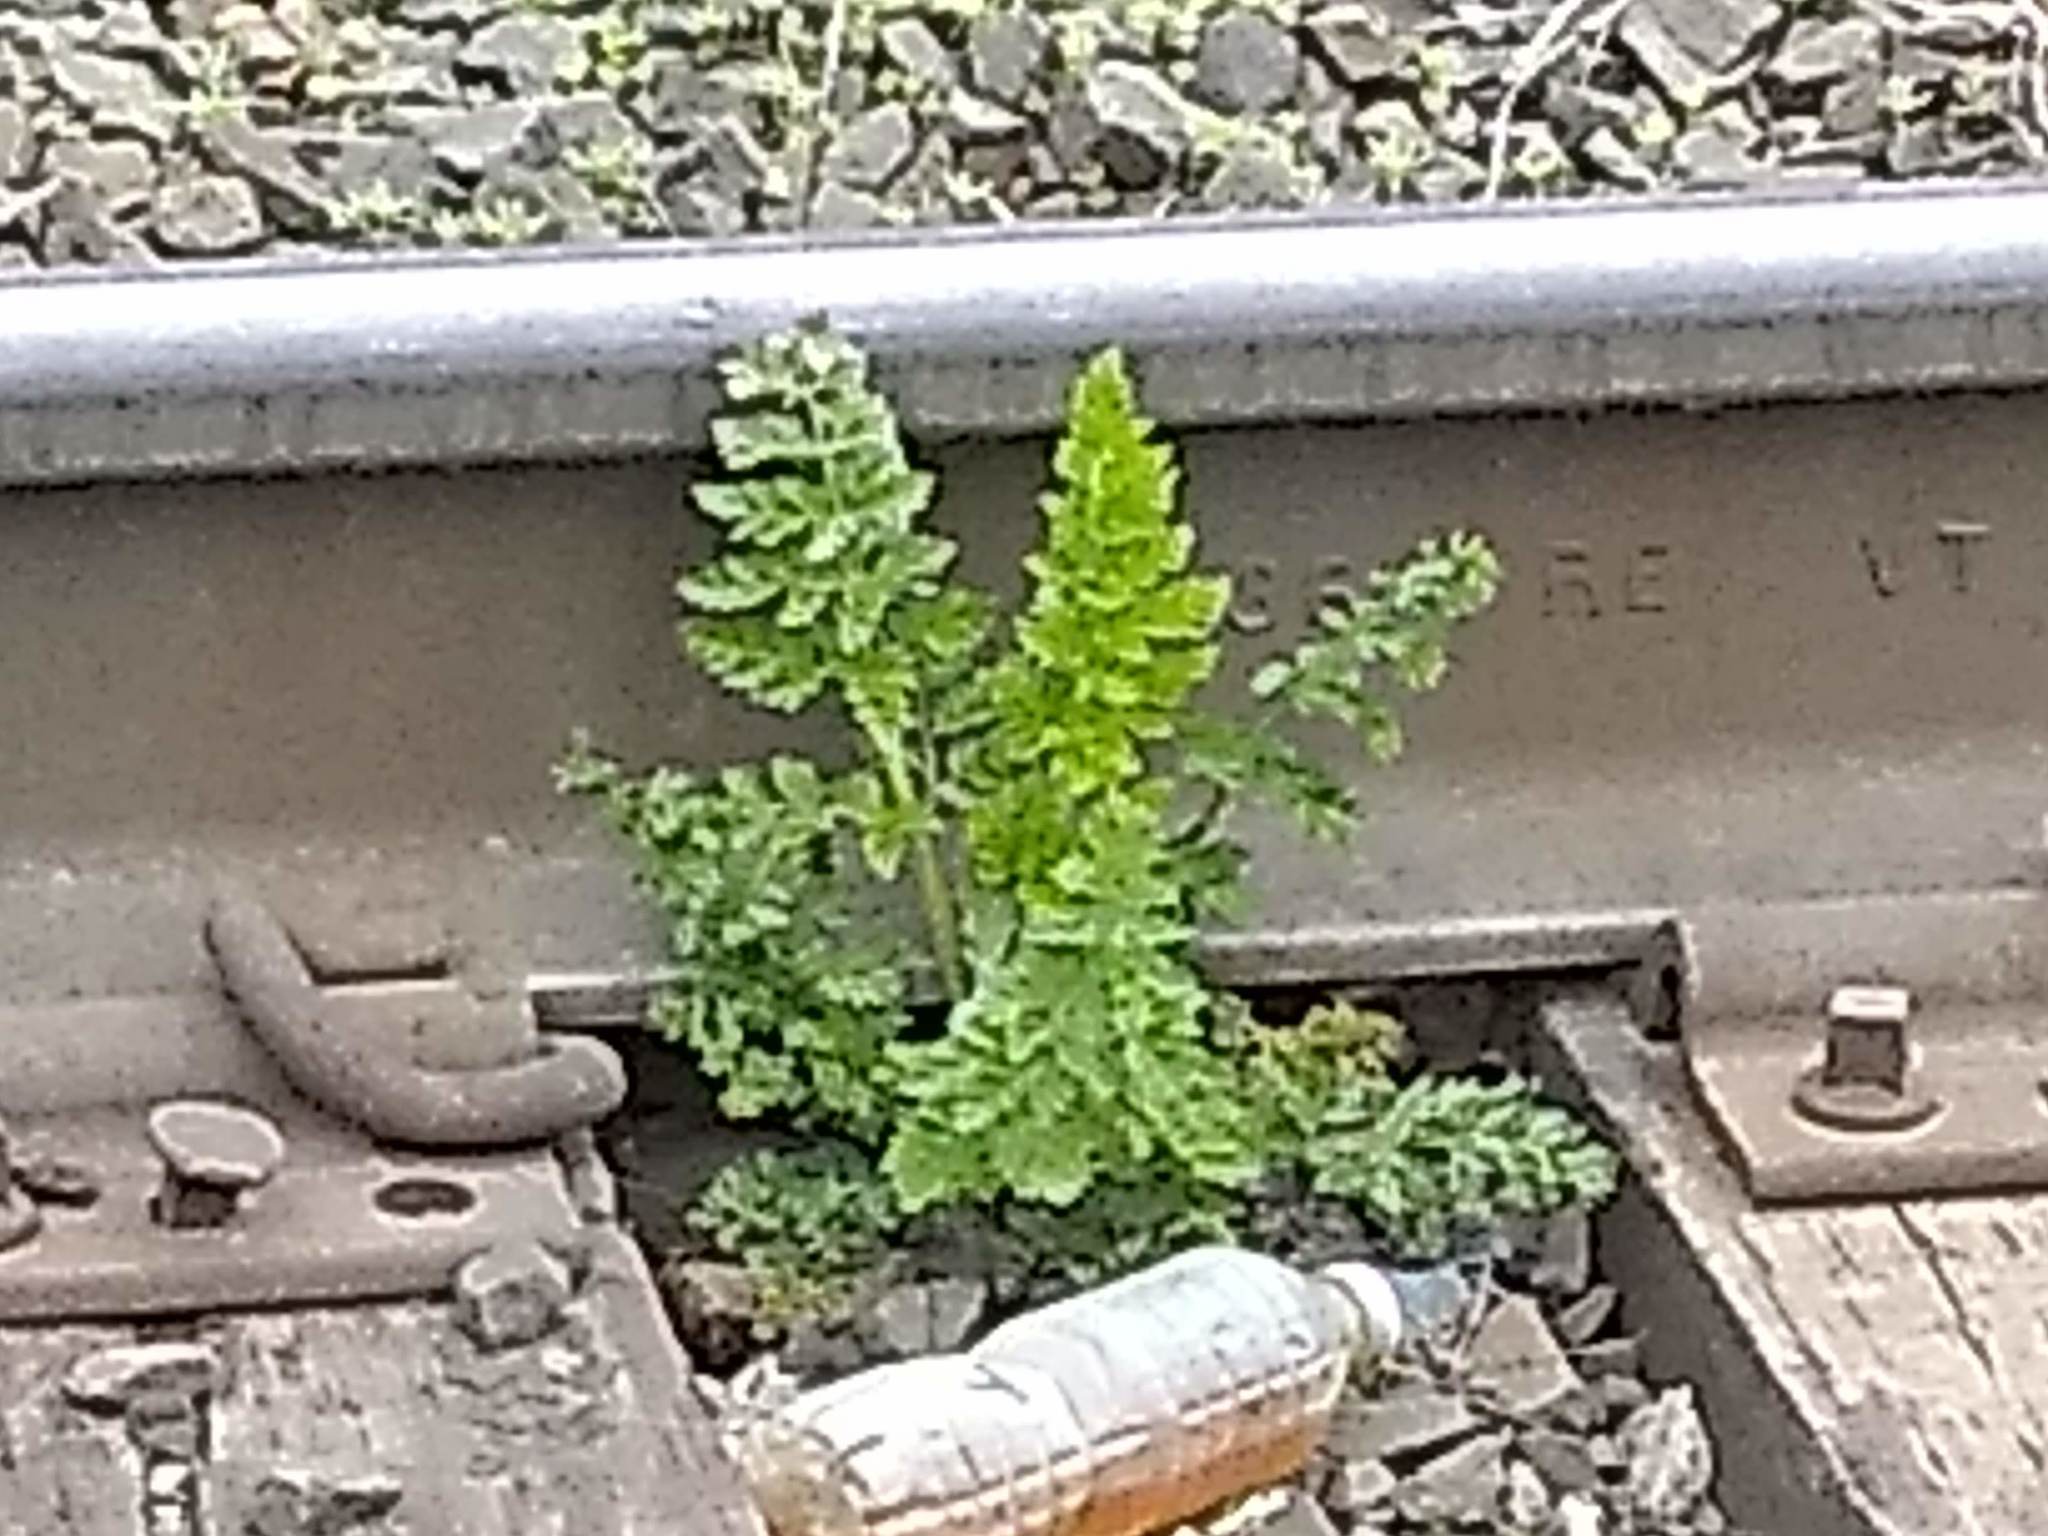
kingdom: Plantae
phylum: Tracheophyta
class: Magnoliopsida
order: Apiales
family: Apiaceae
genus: Daucus
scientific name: Daucus carota
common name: Wild carrot
